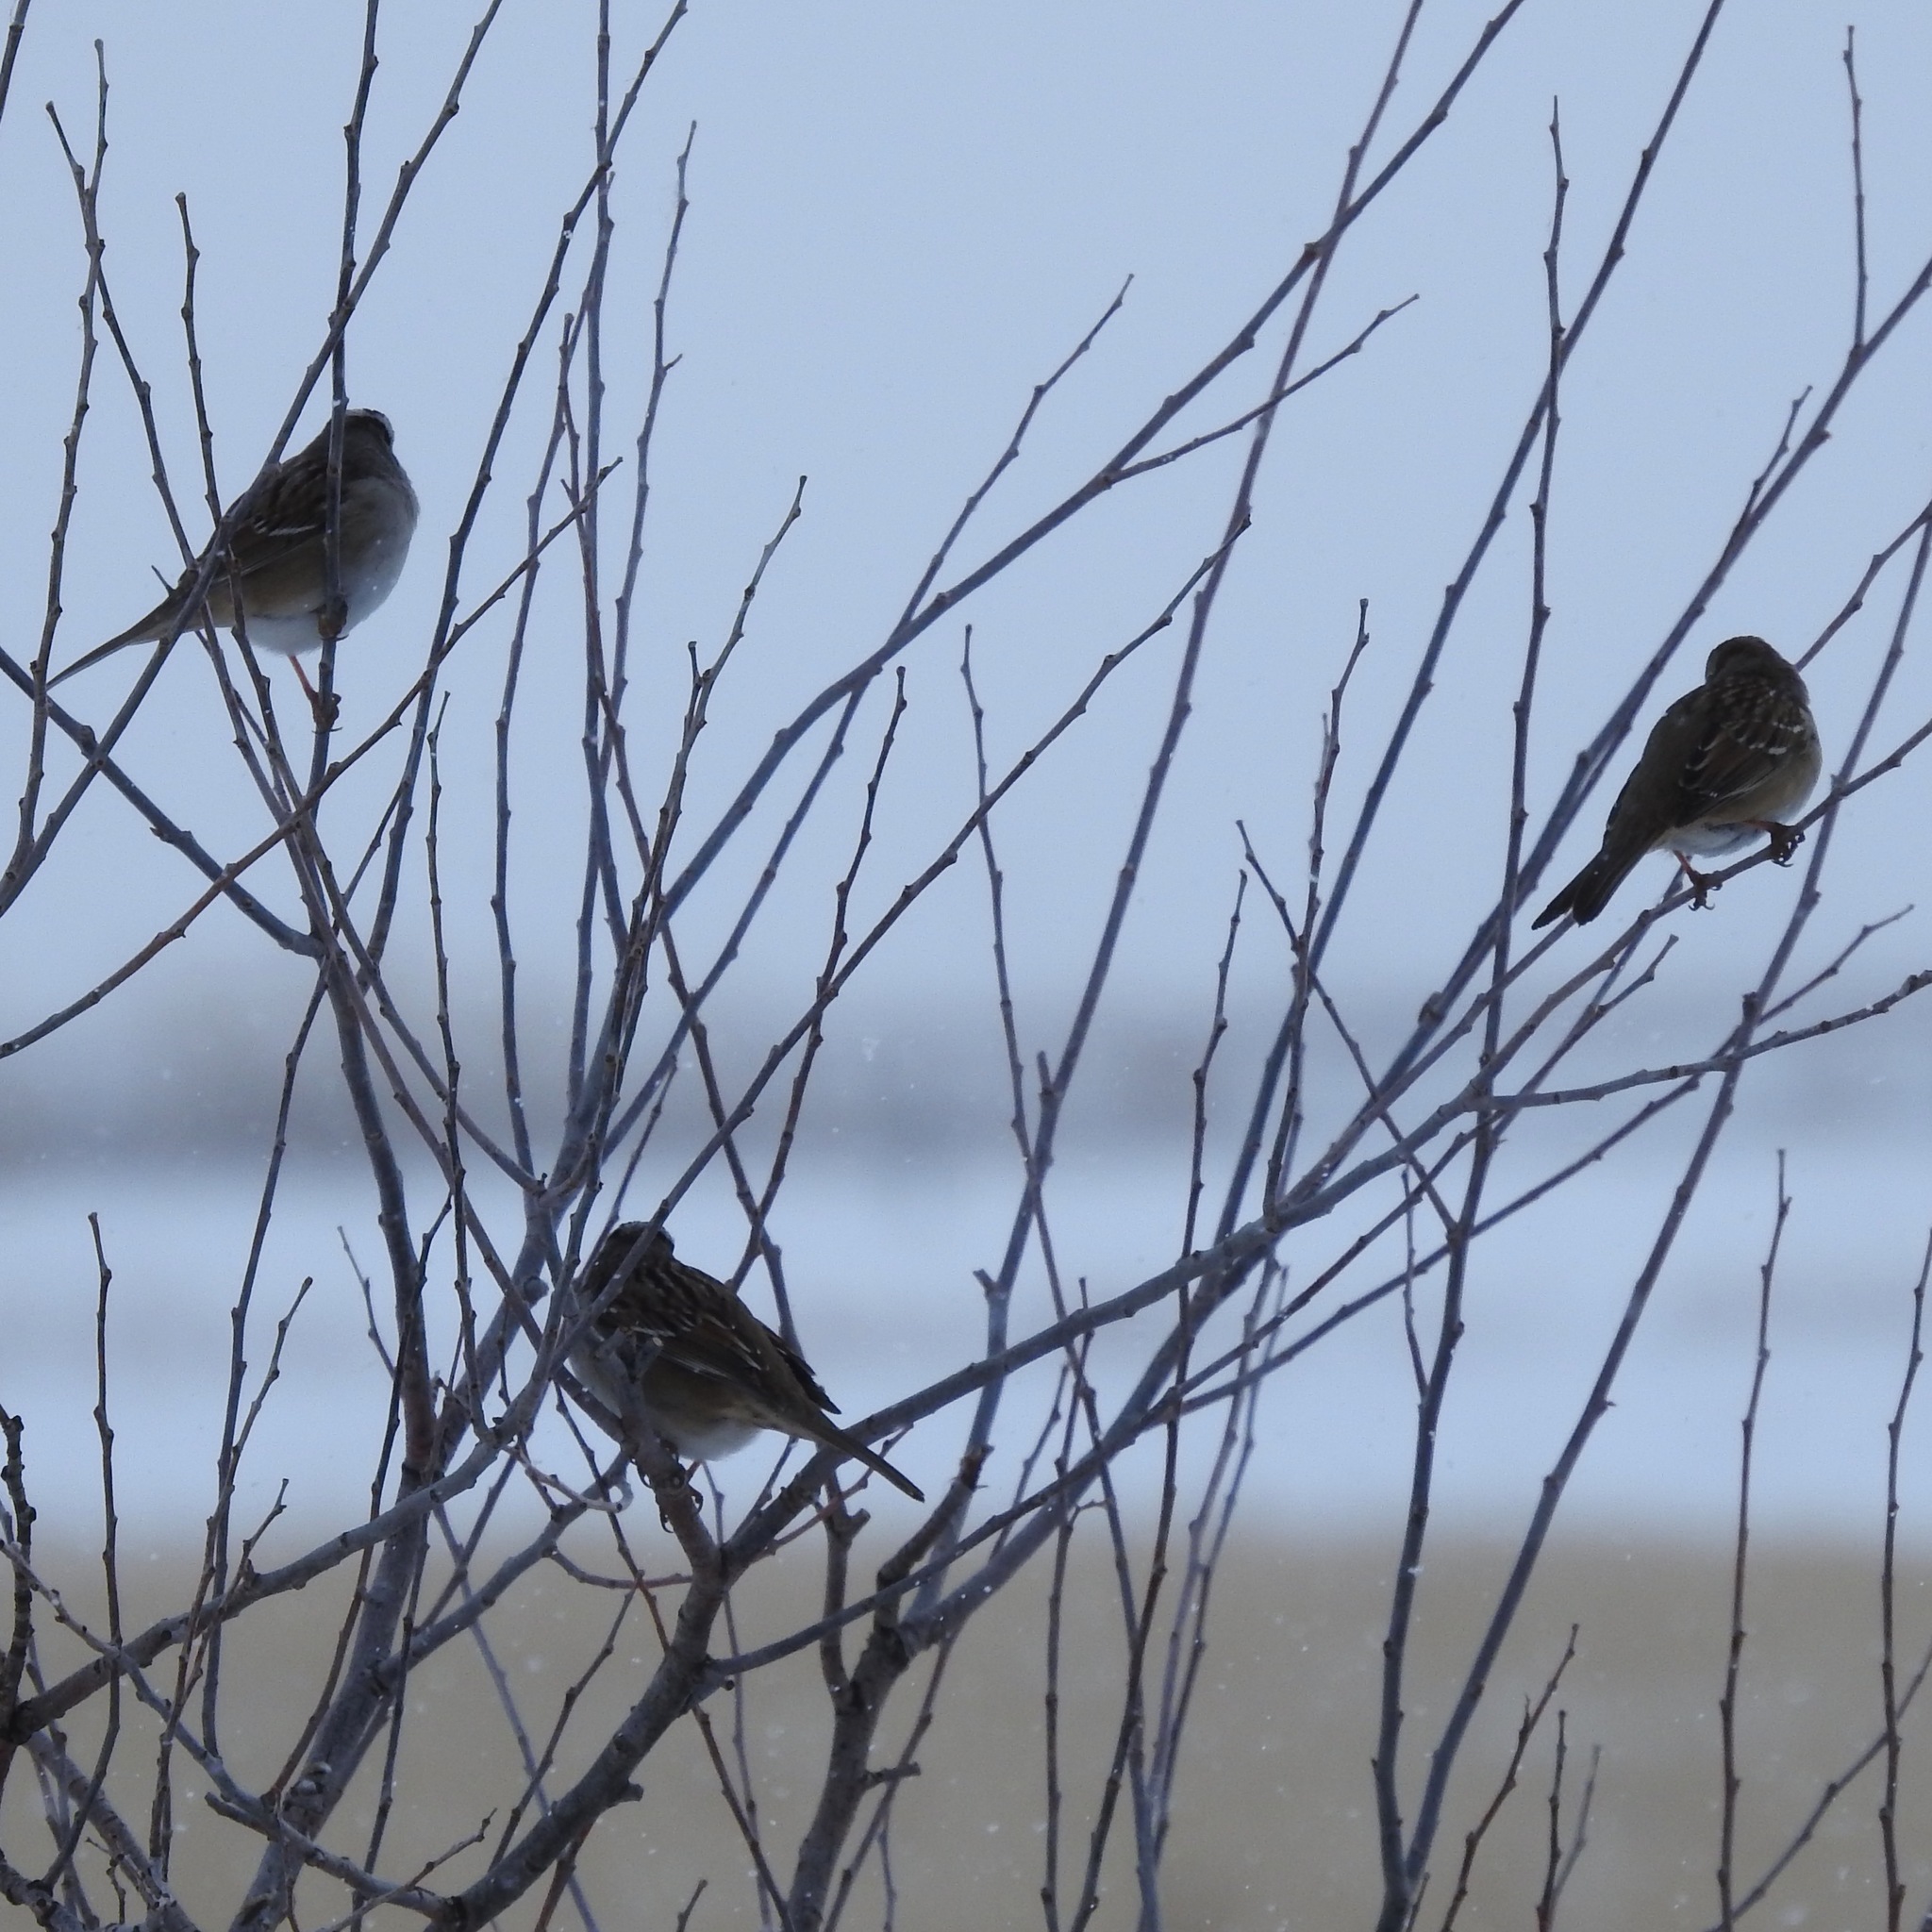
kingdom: Animalia
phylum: Chordata
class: Aves
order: Passeriformes
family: Passerellidae
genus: Zonotrichia
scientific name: Zonotrichia leucophrys
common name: White-crowned sparrow
